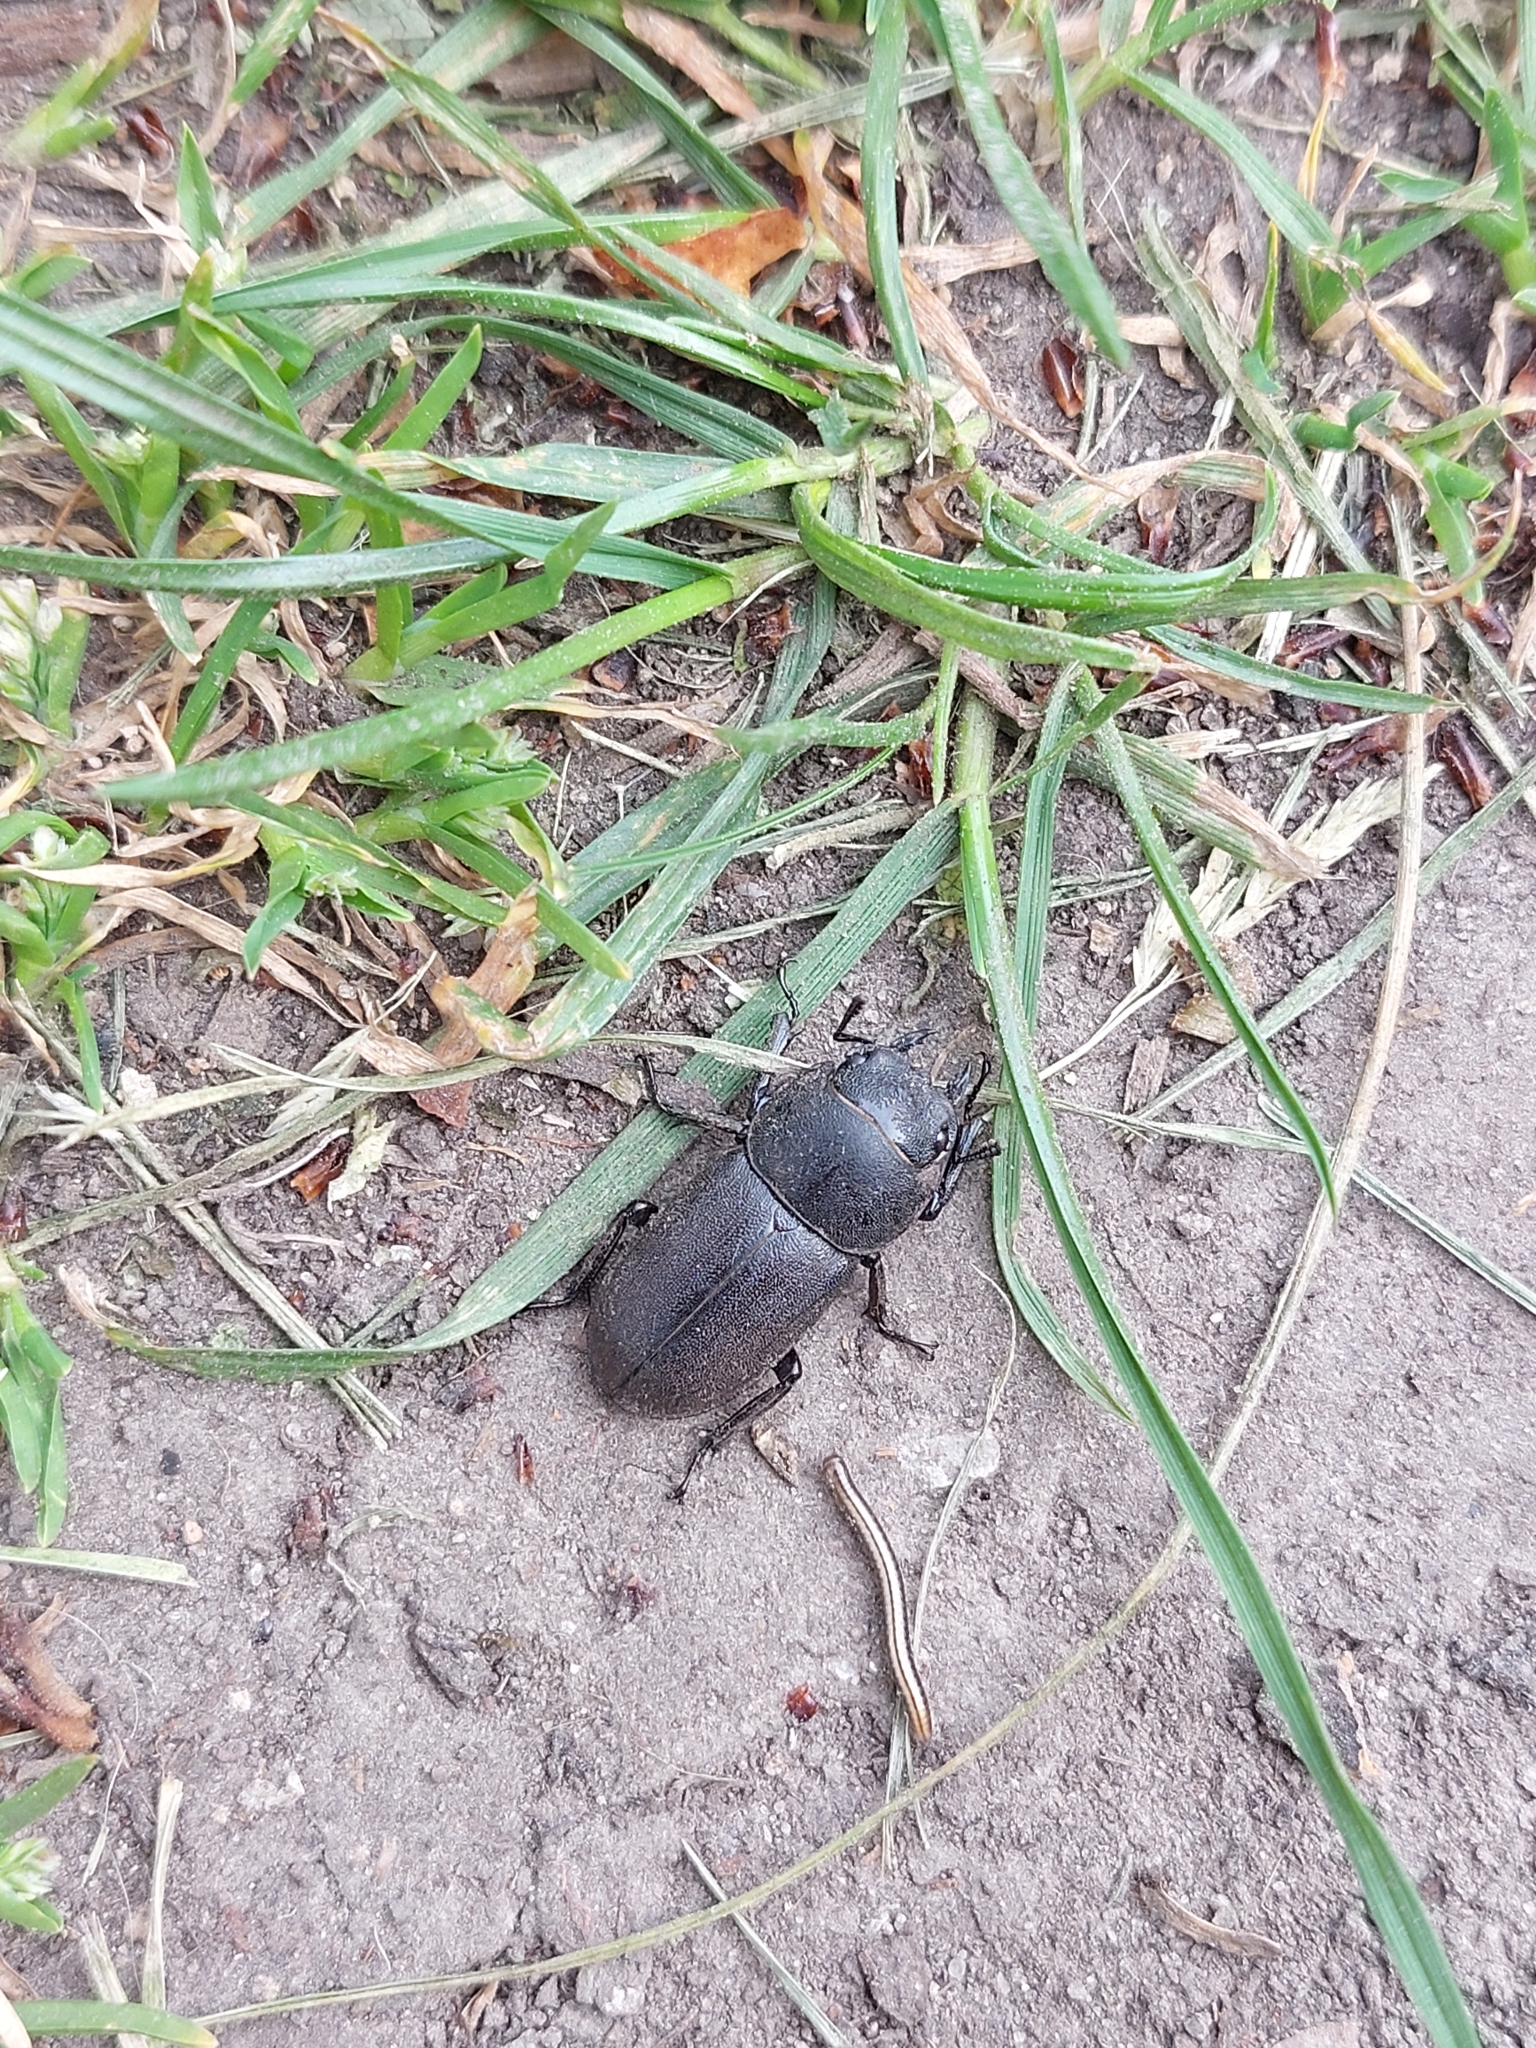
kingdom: Animalia
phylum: Arthropoda
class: Insecta
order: Coleoptera
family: Lucanidae
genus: Dorcus
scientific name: Dorcus parallelipipedus
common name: Lesser stag beetle
